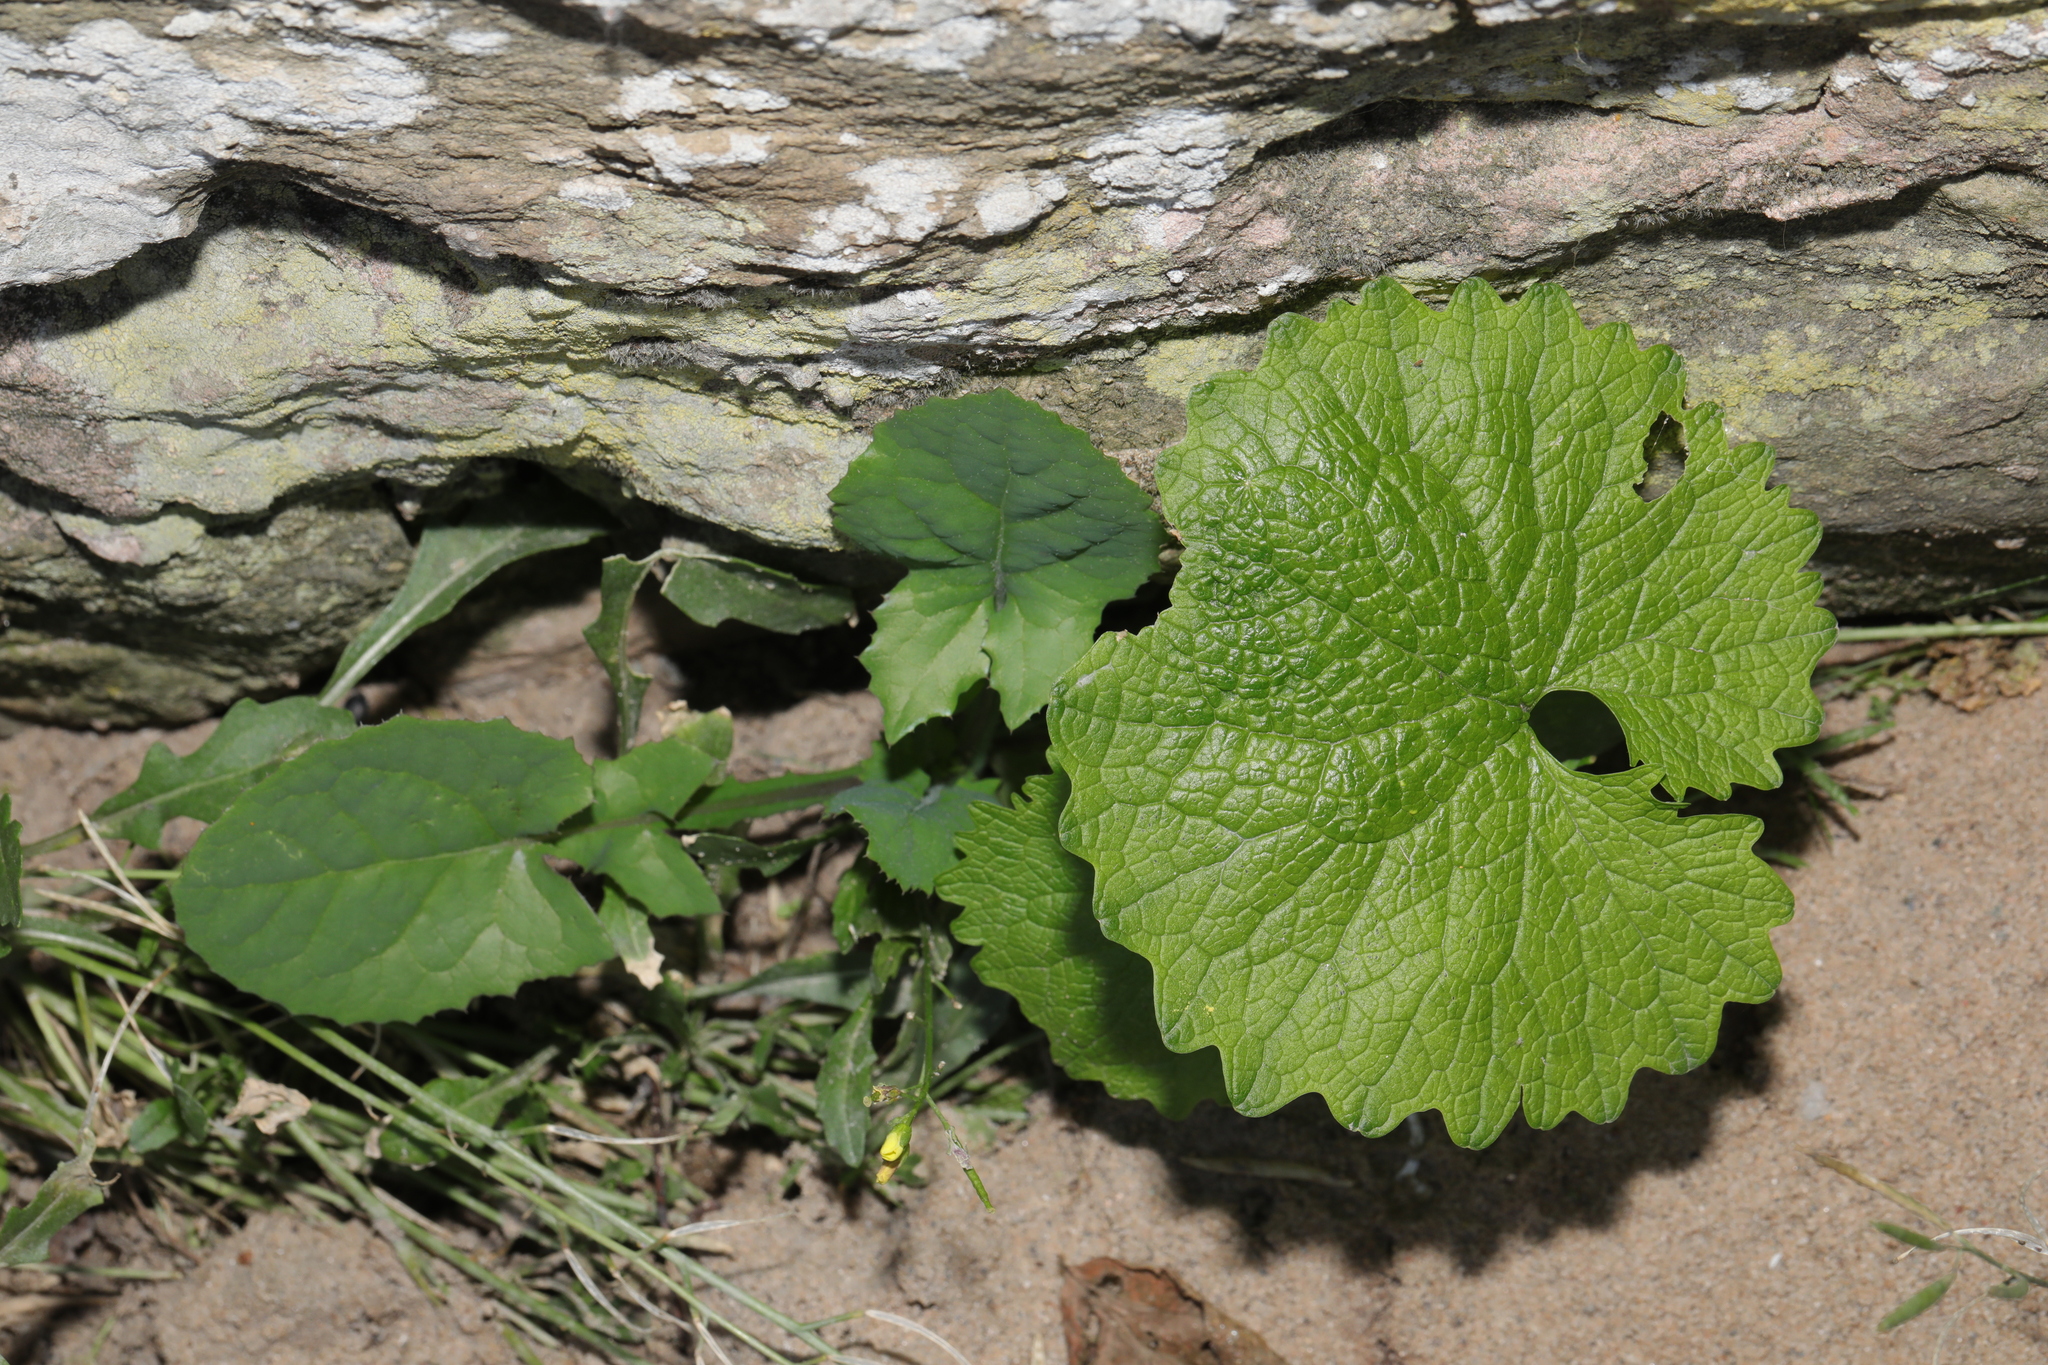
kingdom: Plantae
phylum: Tracheophyta
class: Magnoliopsida
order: Brassicales
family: Brassicaceae
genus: Alliaria
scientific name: Alliaria petiolata
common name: Garlic mustard
